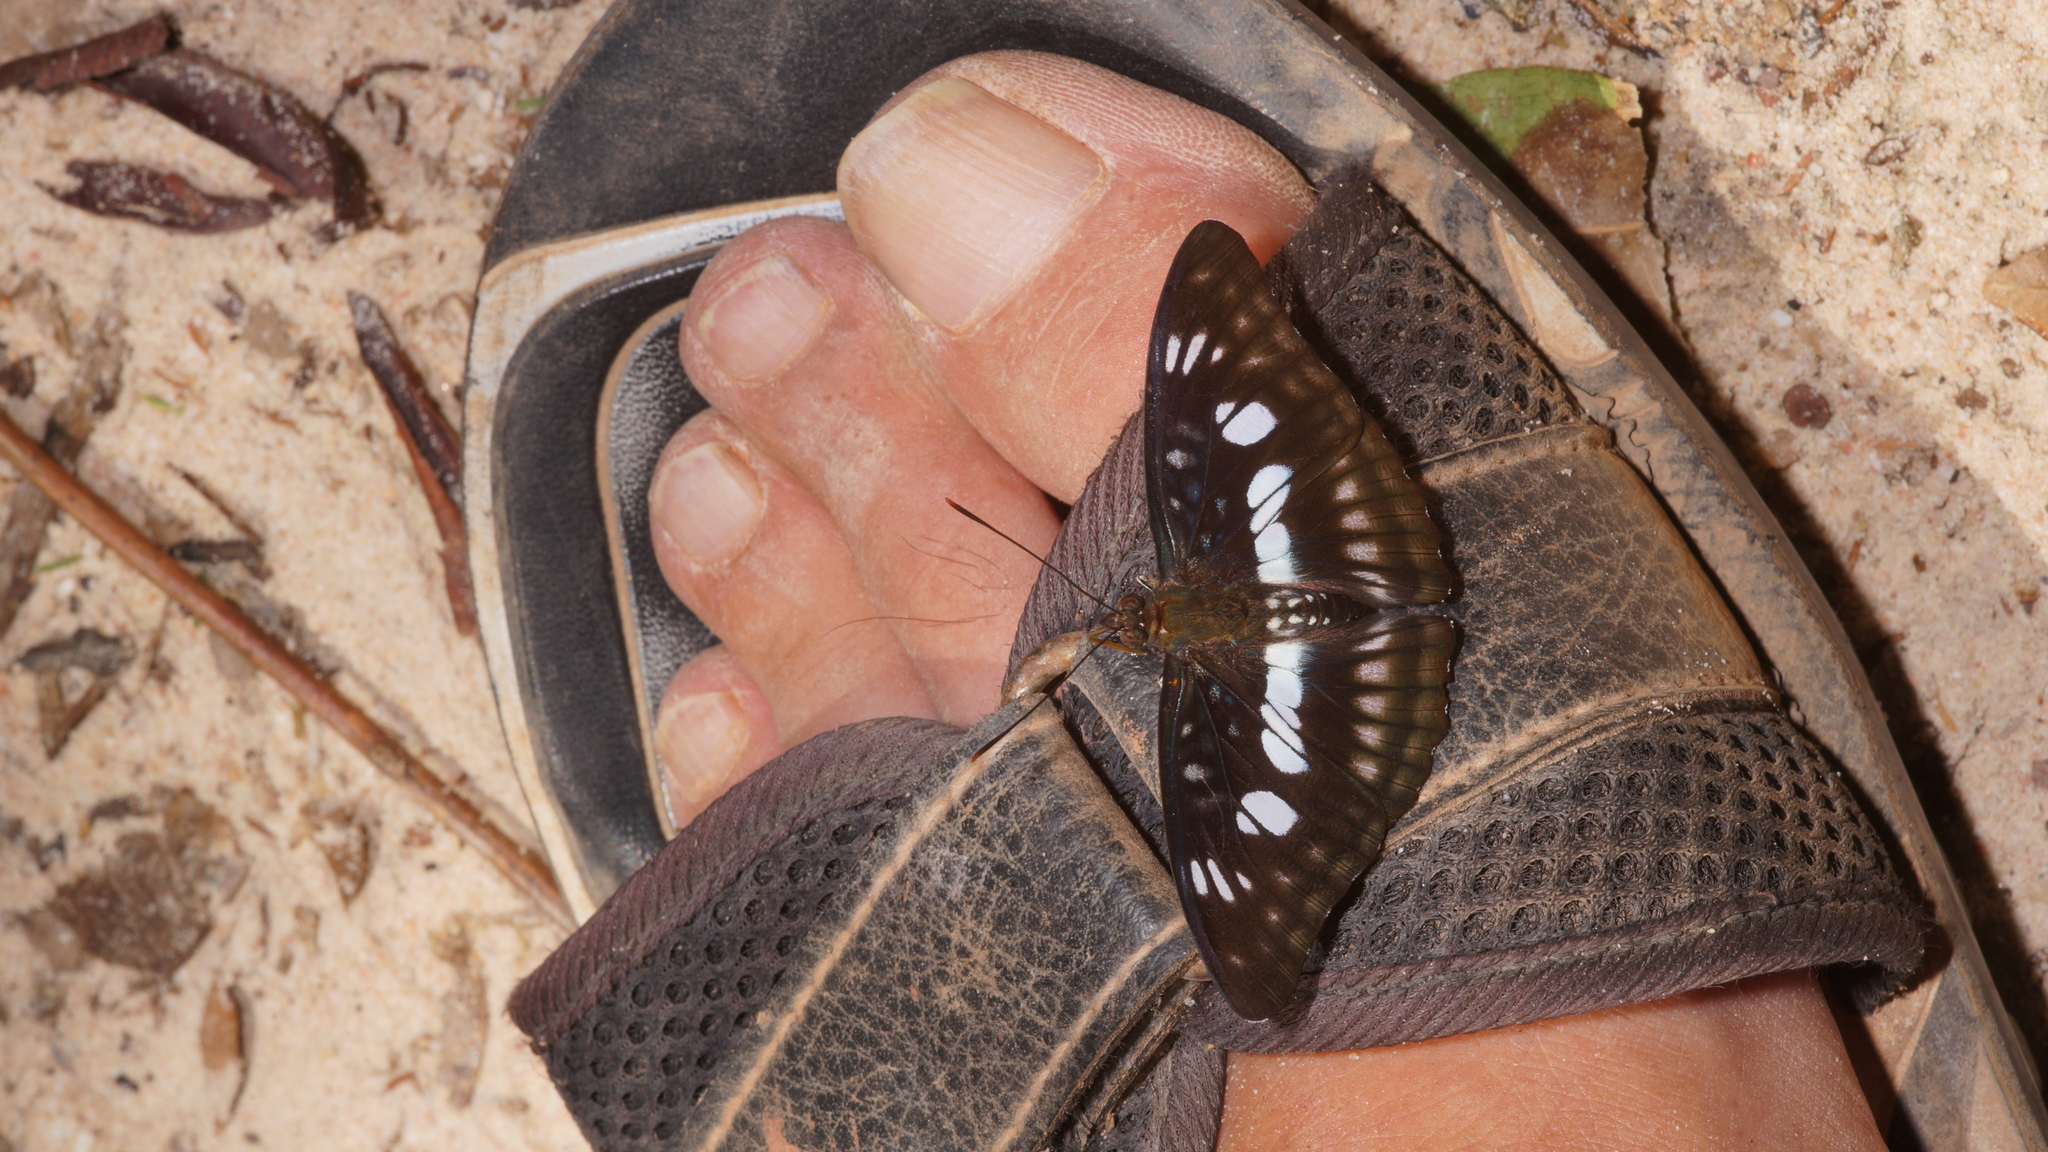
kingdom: Animalia
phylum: Arthropoda
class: Insecta
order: Lepidoptera
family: Nymphalidae
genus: Parathyma
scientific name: Parathyma ranga
